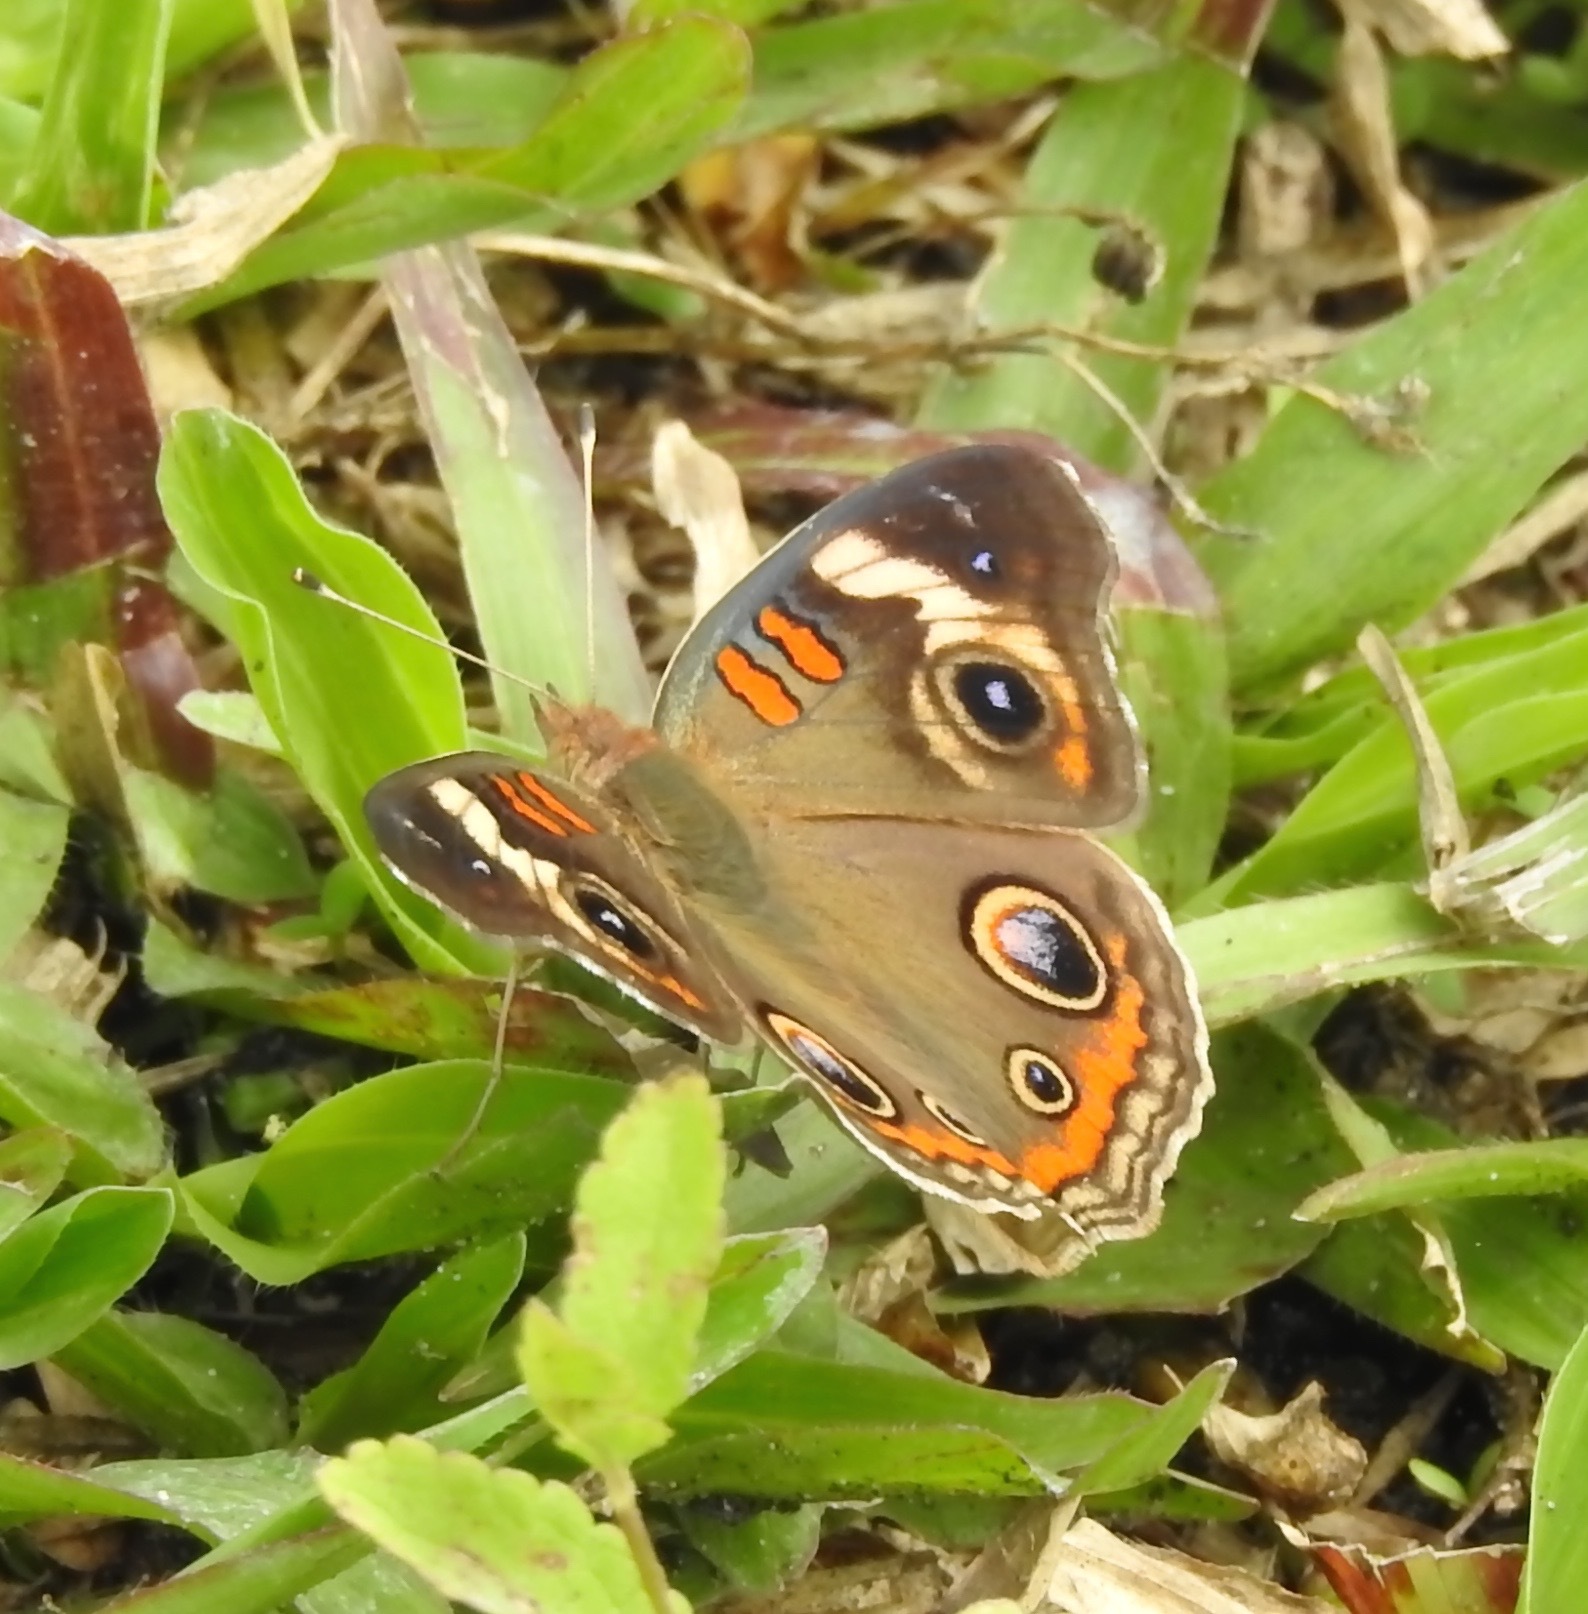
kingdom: Animalia
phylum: Arthropoda
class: Insecta
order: Lepidoptera
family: Nymphalidae
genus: Junonia
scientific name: Junonia coenia
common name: Common buckeye
